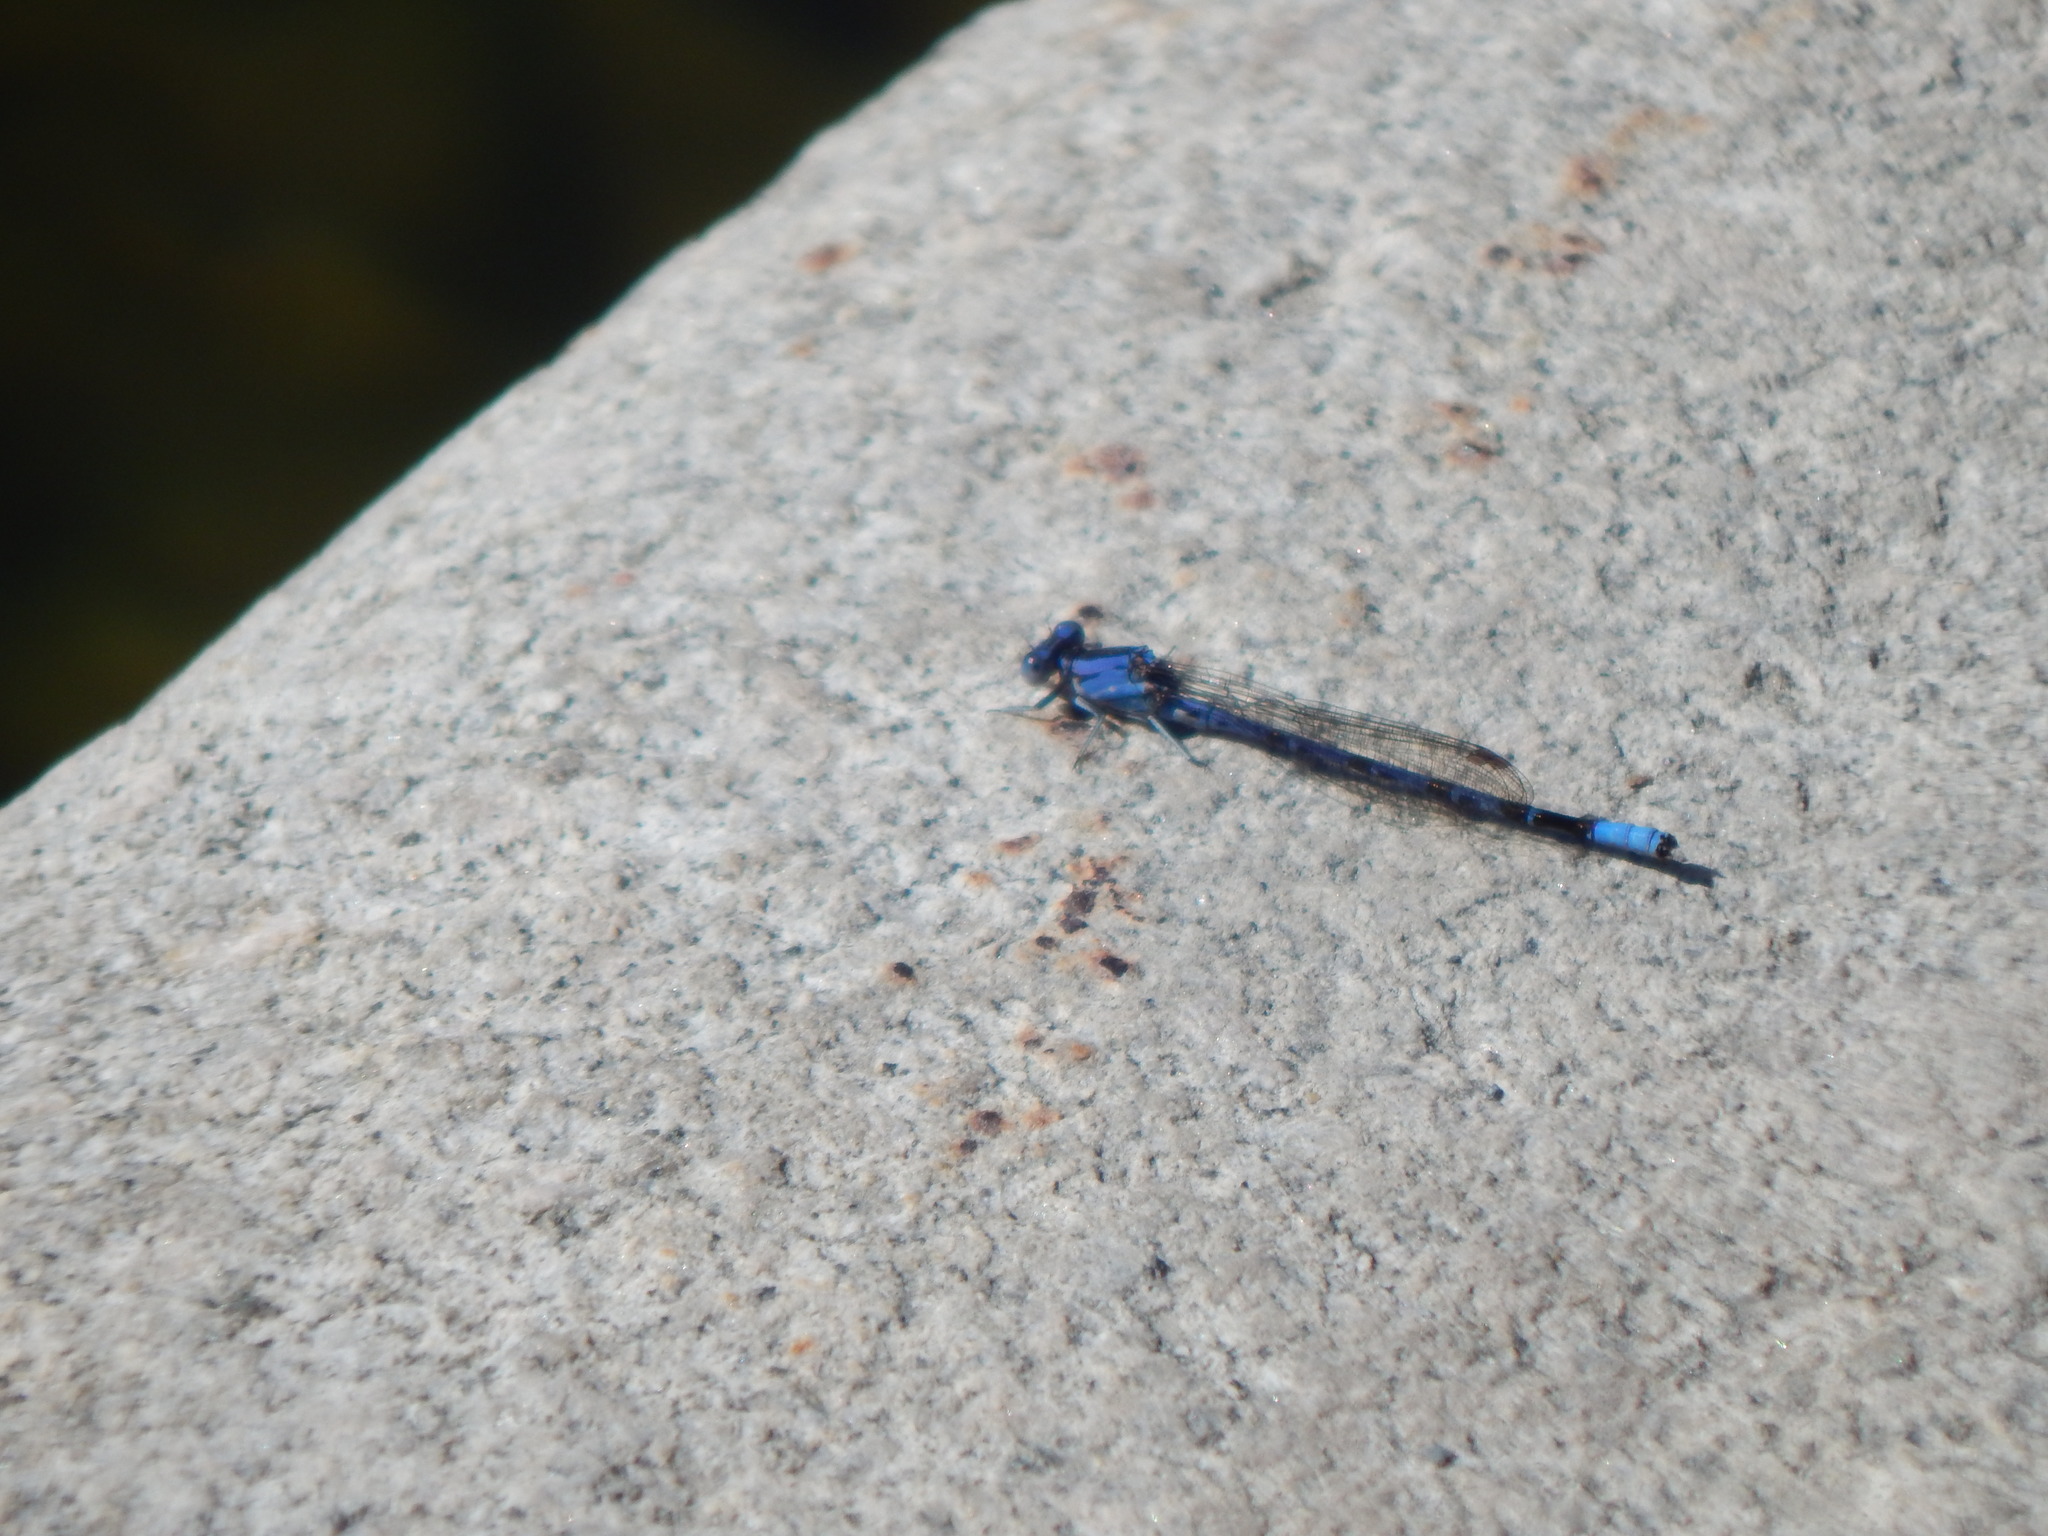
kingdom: Animalia
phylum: Arthropoda
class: Insecta
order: Odonata
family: Coenagrionidae
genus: Argia
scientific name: Argia vivida
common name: Vivid dancer
